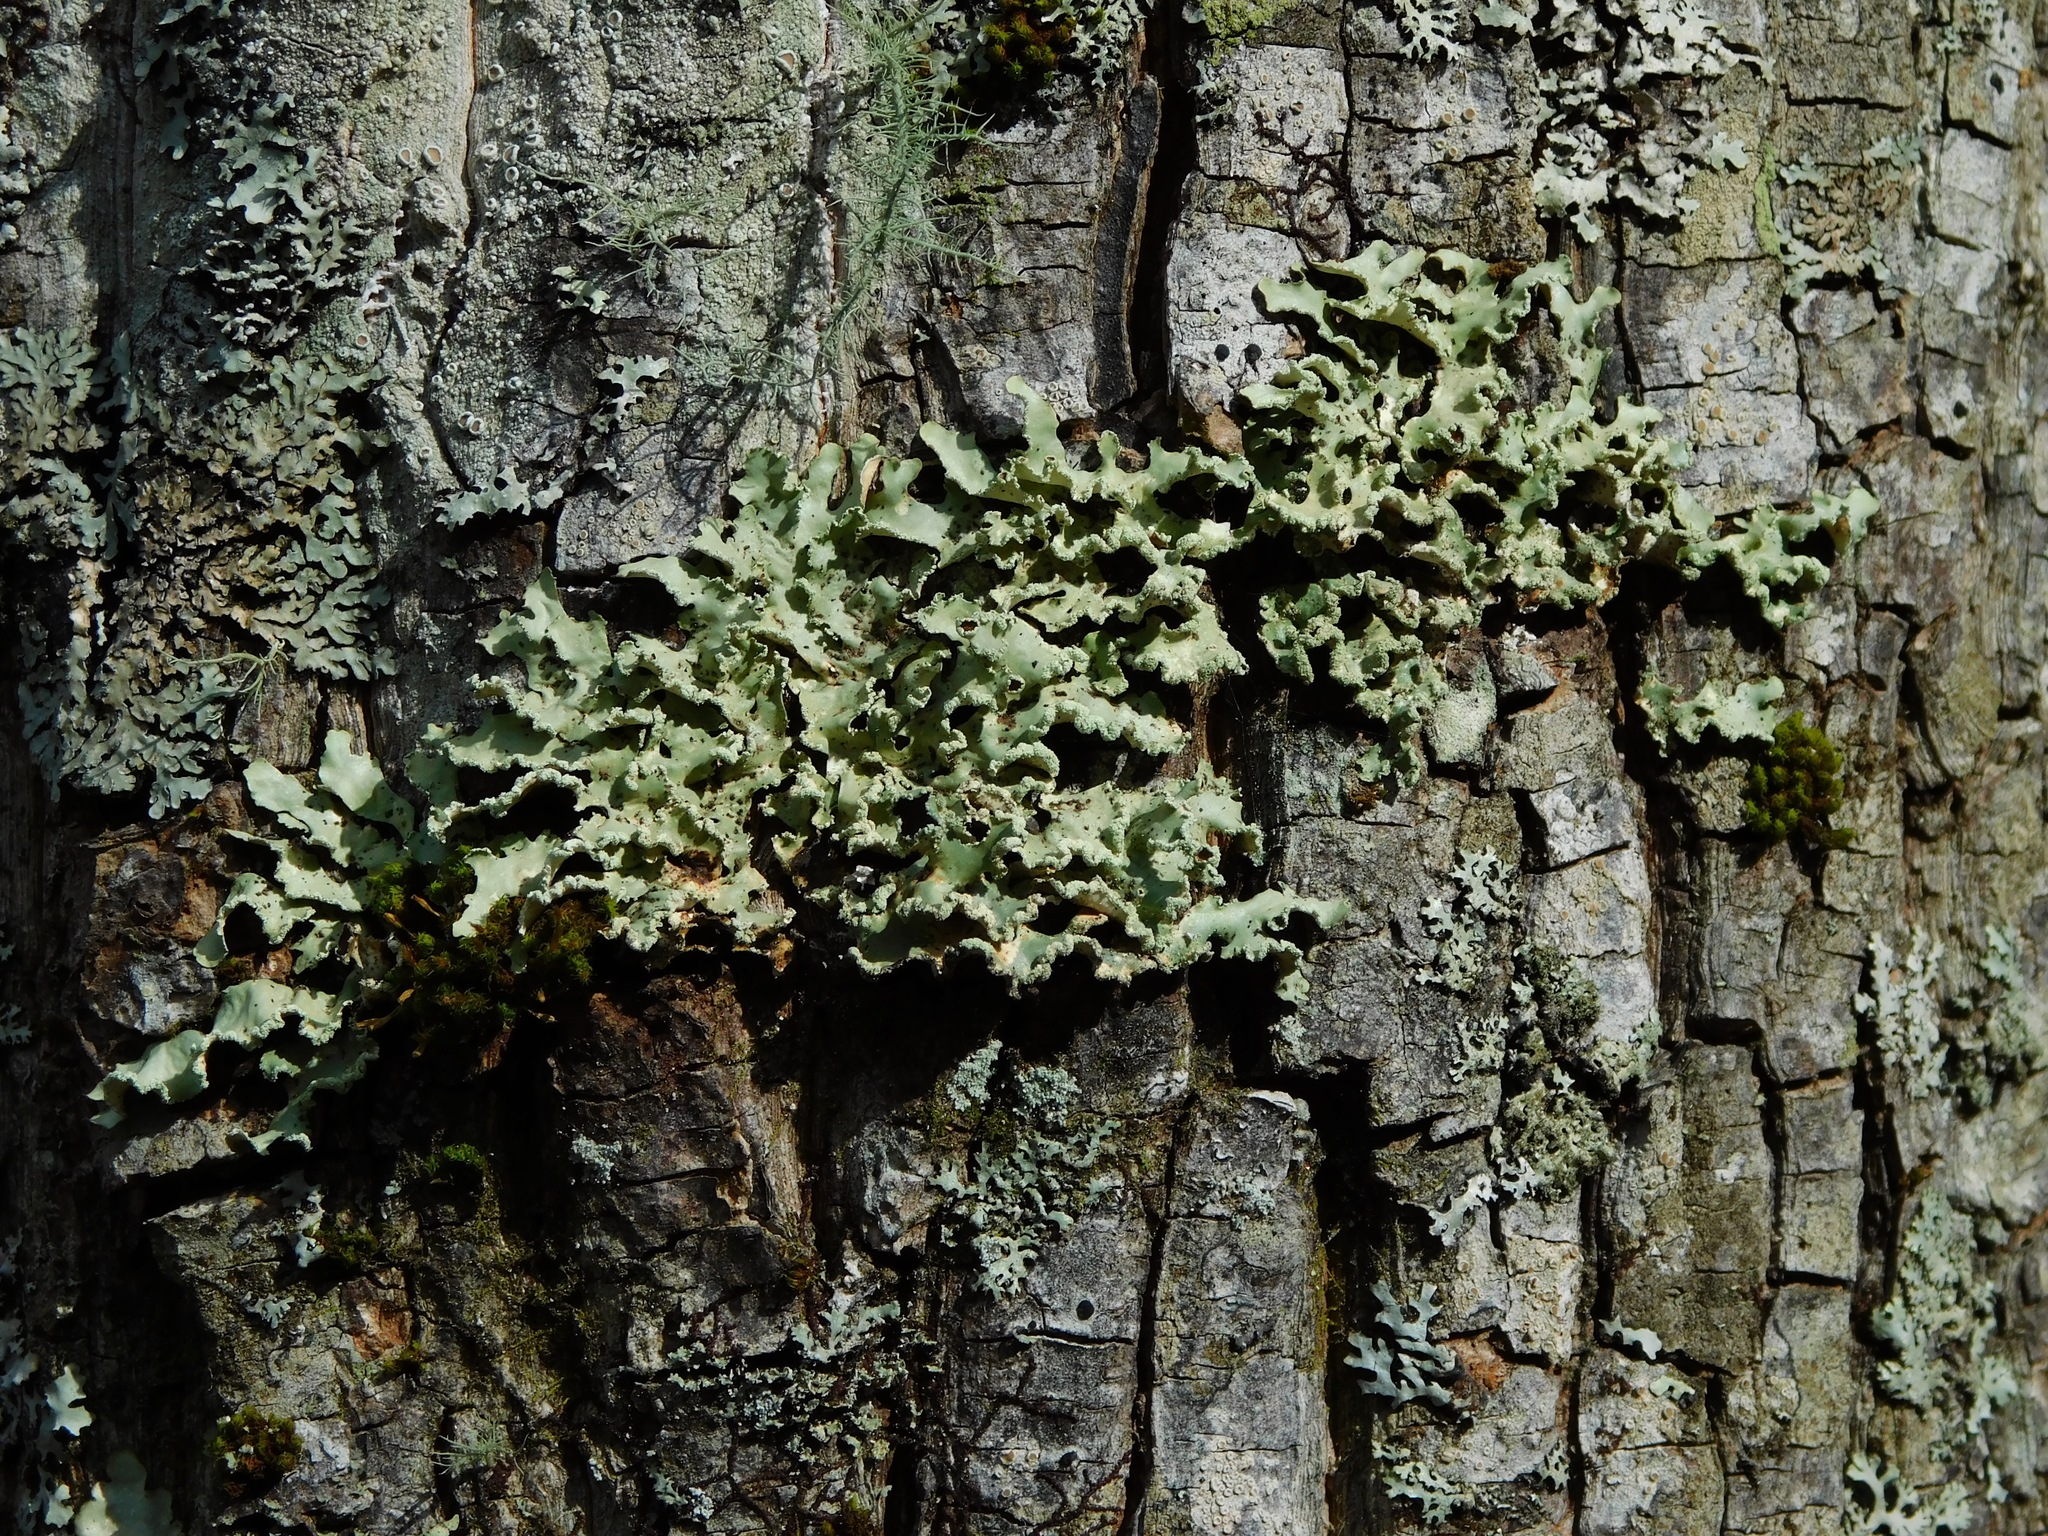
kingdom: Fungi
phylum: Ascomycota
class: Lecanoromycetes
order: Lecanorales
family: Parmeliaceae
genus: Usnocetraria
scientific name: Usnocetraria oakesiana
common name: Yellow ribbon lichen
